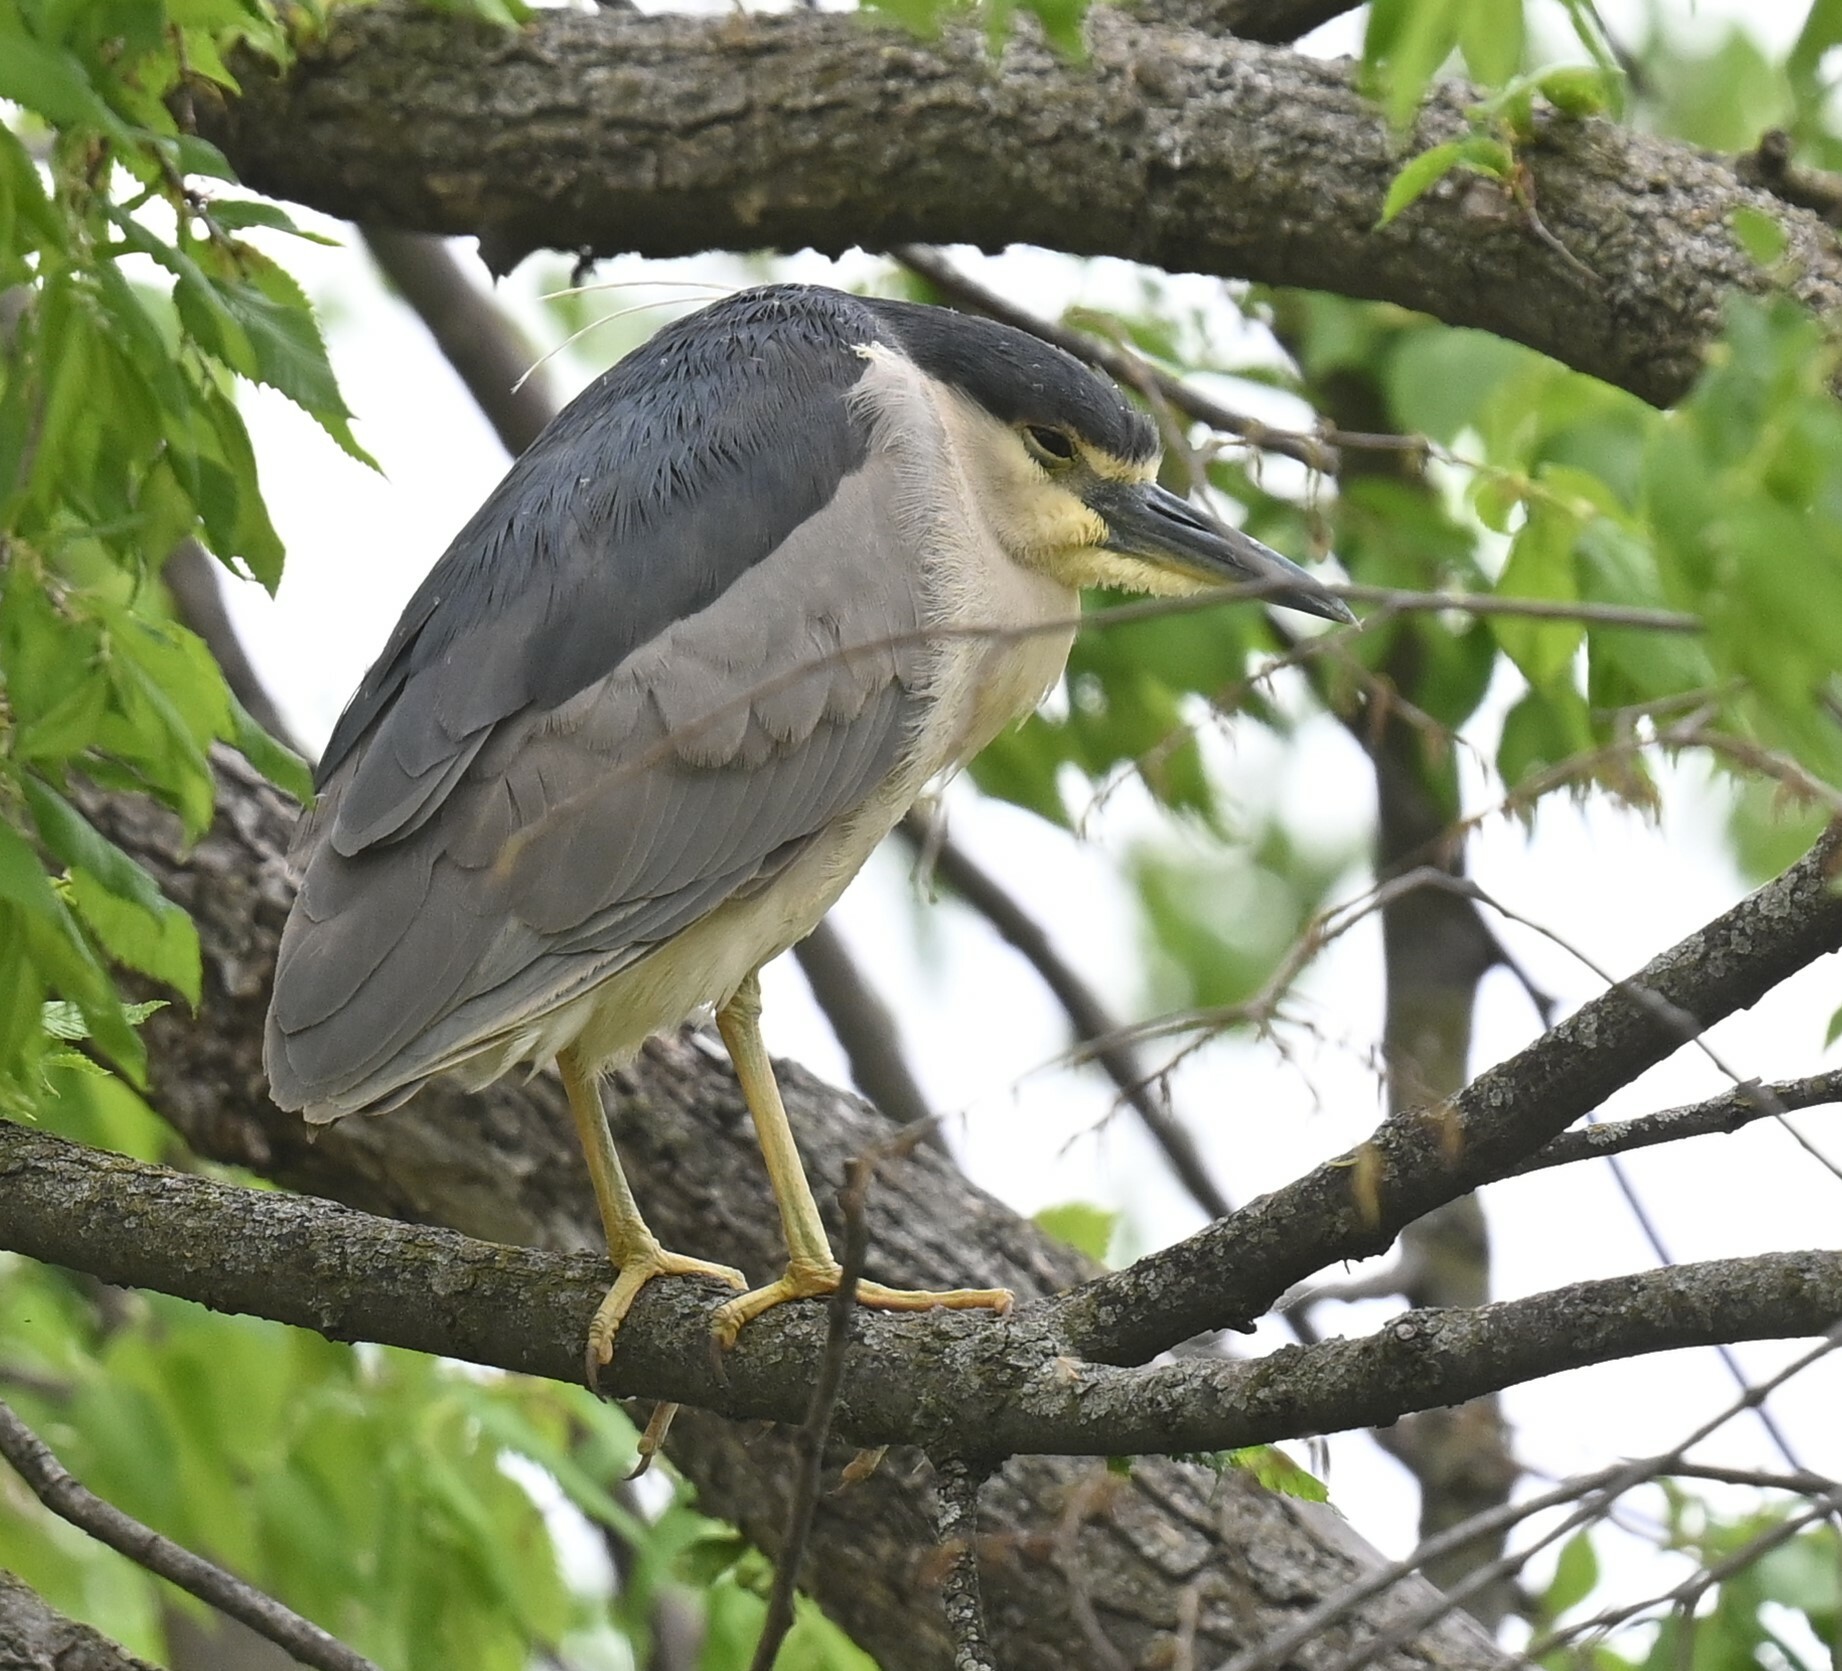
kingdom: Animalia
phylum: Chordata
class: Aves
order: Pelecaniformes
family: Ardeidae
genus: Nycticorax
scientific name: Nycticorax nycticorax
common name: Black-crowned night heron
